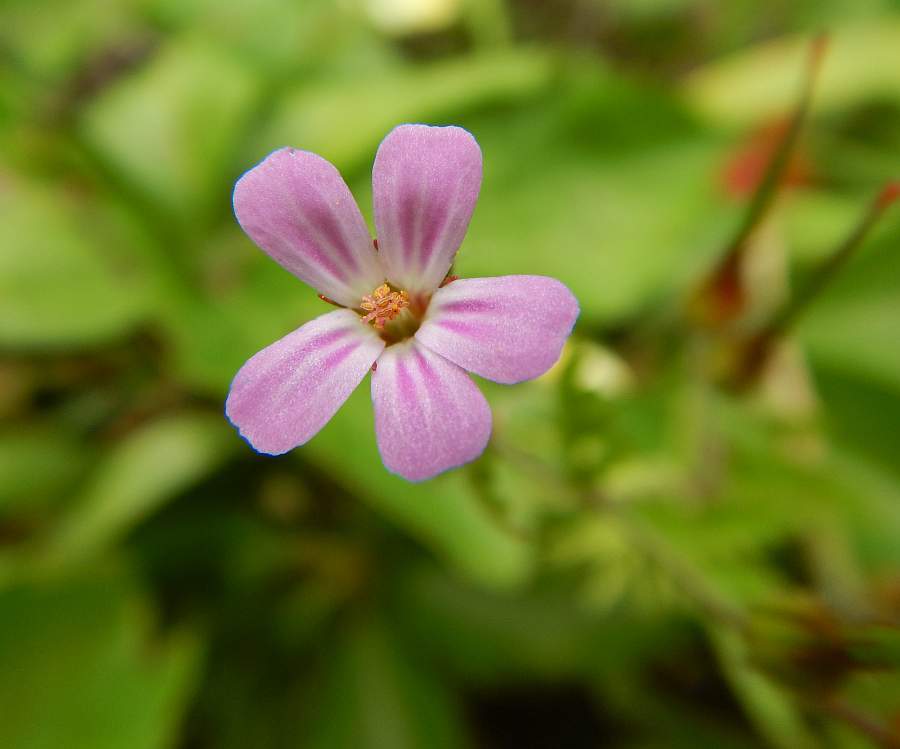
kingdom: Plantae
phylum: Tracheophyta
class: Magnoliopsida
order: Geraniales
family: Geraniaceae
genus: Geranium
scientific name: Geranium robertianum
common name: Herb-robert
